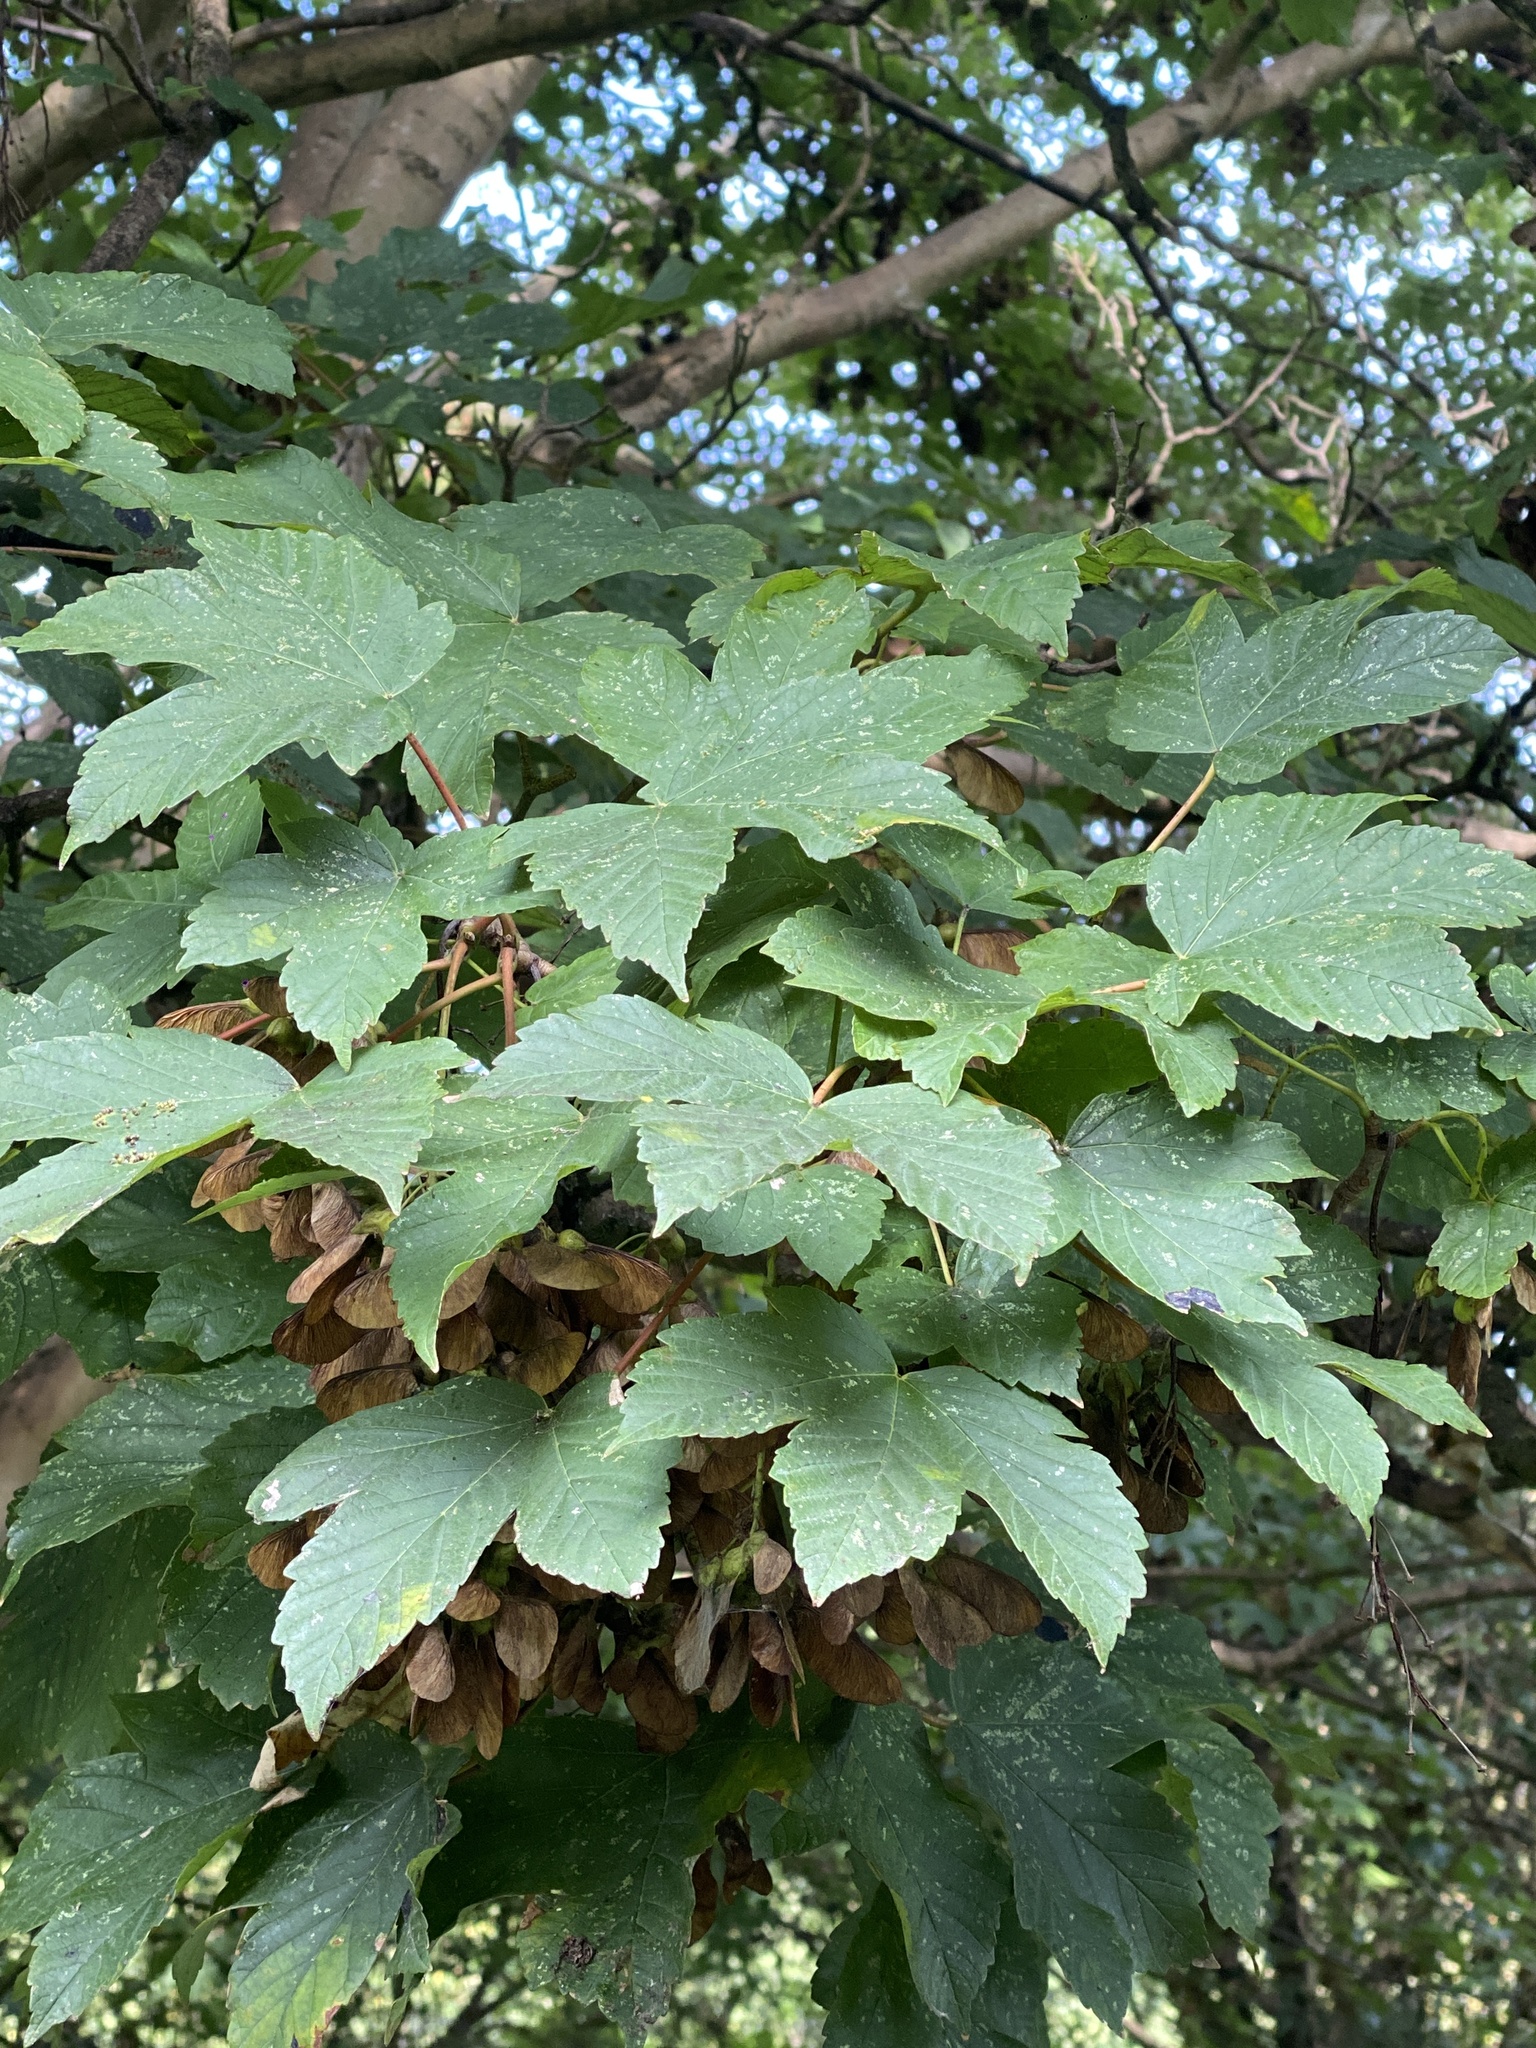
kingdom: Plantae
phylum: Tracheophyta
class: Magnoliopsida
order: Sapindales
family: Sapindaceae
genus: Acer
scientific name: Acer pseudoplatanus
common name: Sycamore
